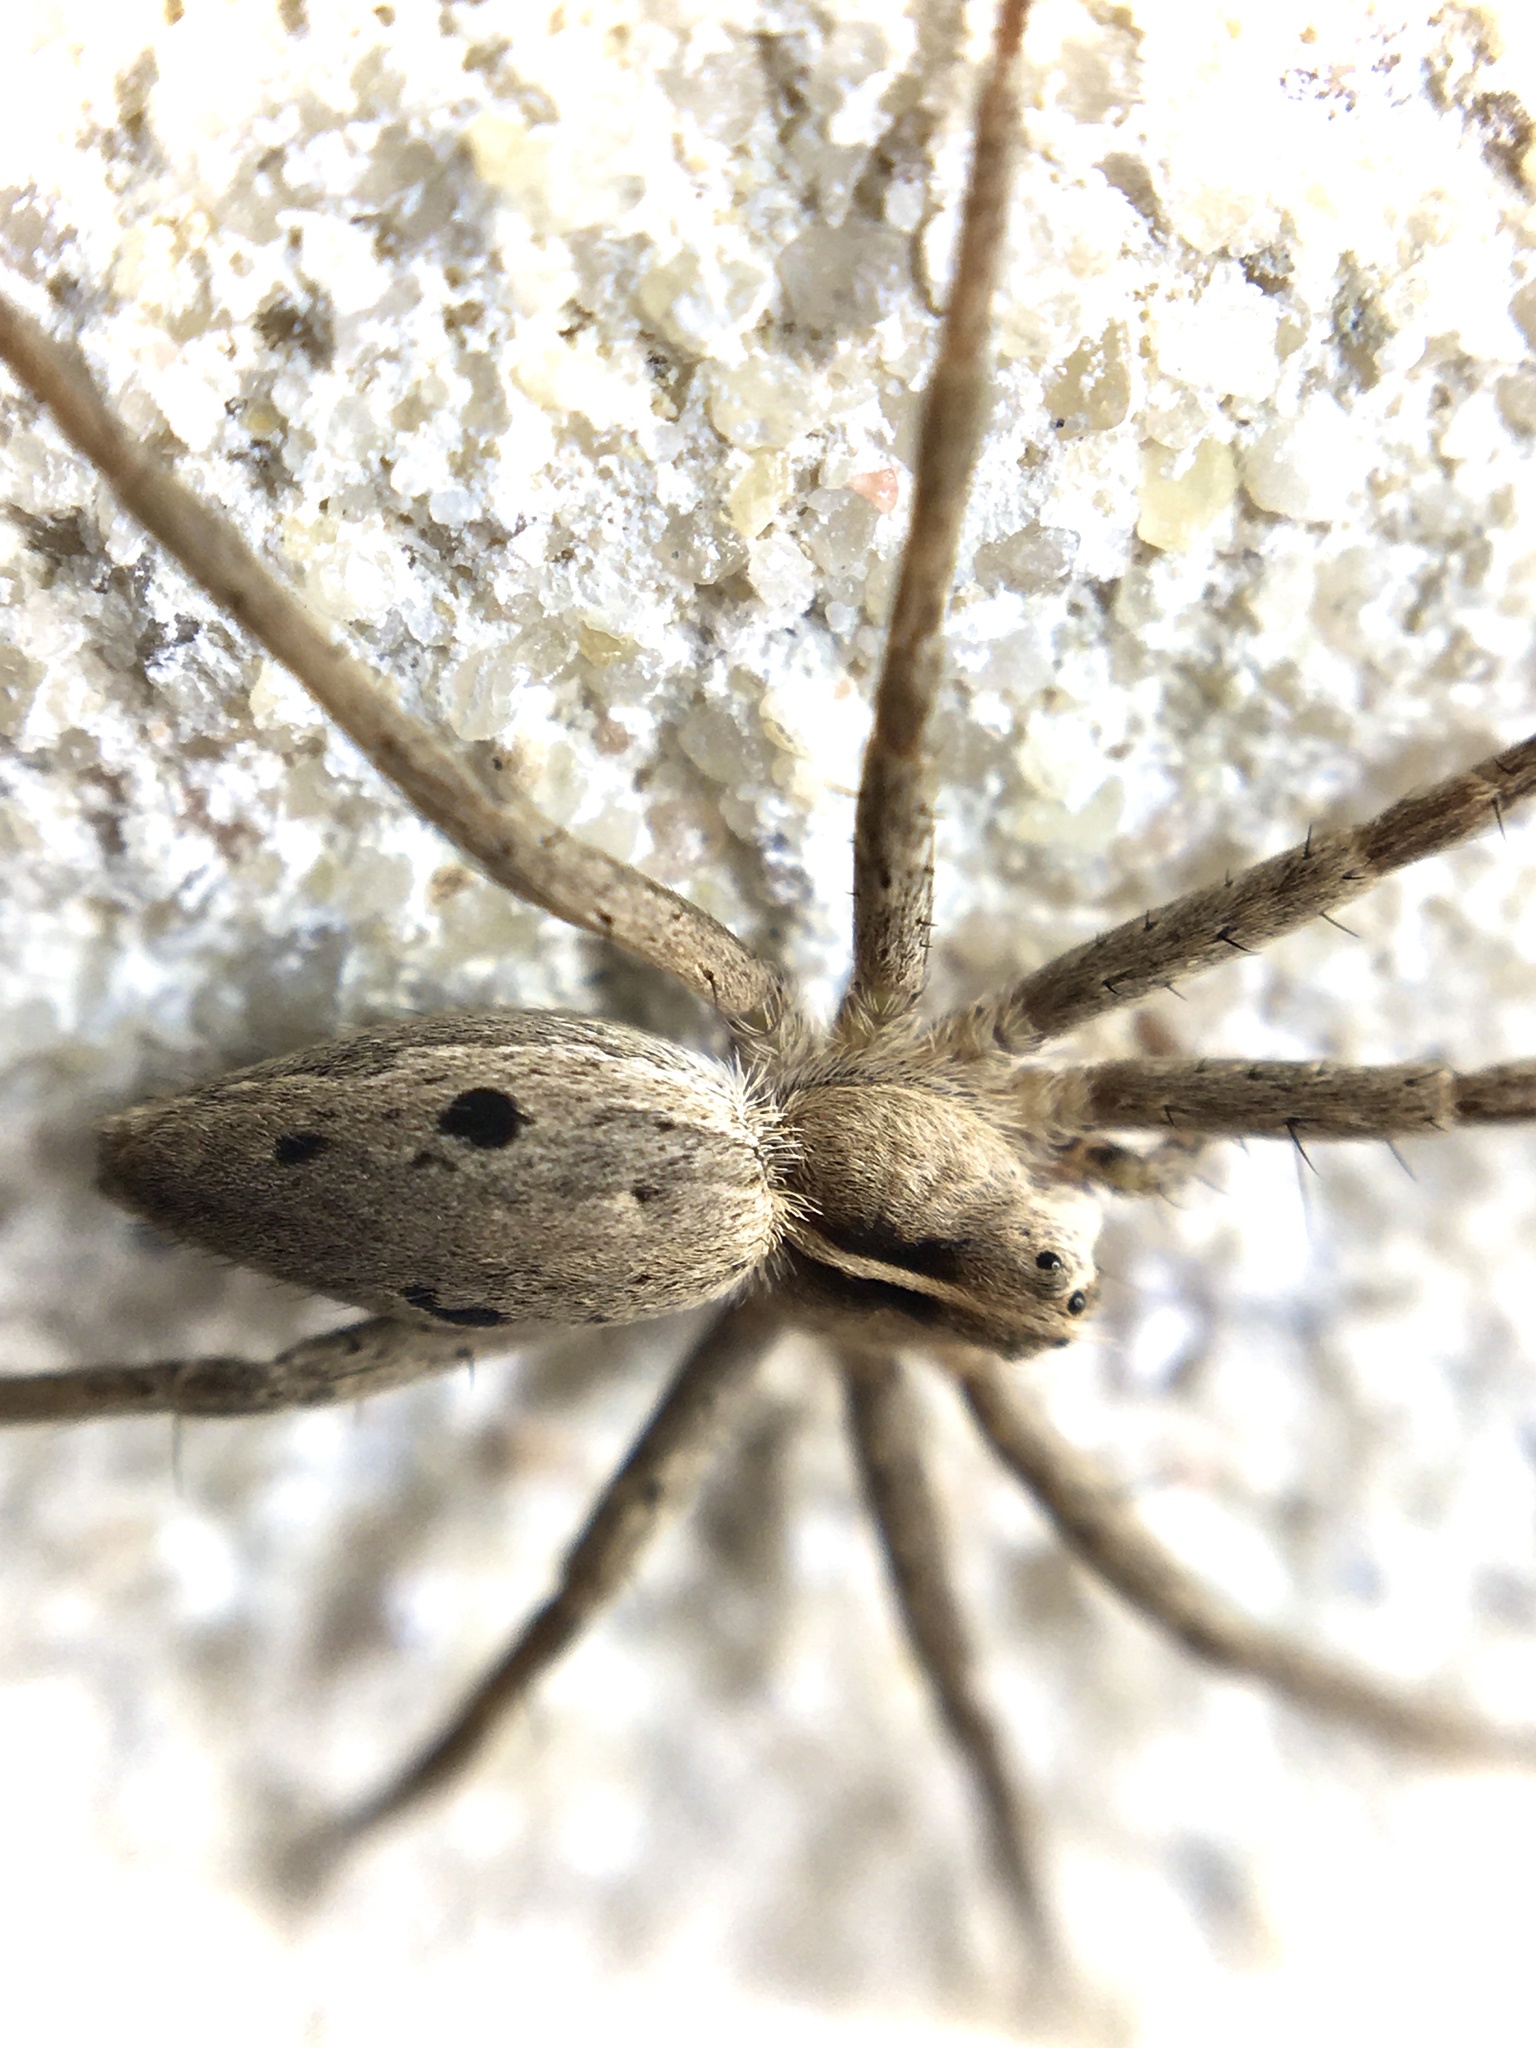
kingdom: Animalia
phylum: Arthropoda
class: Arachnida
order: Araneae
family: Pisauridae
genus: Pisaura
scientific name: Pisaura mirabilis
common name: Tent spider
